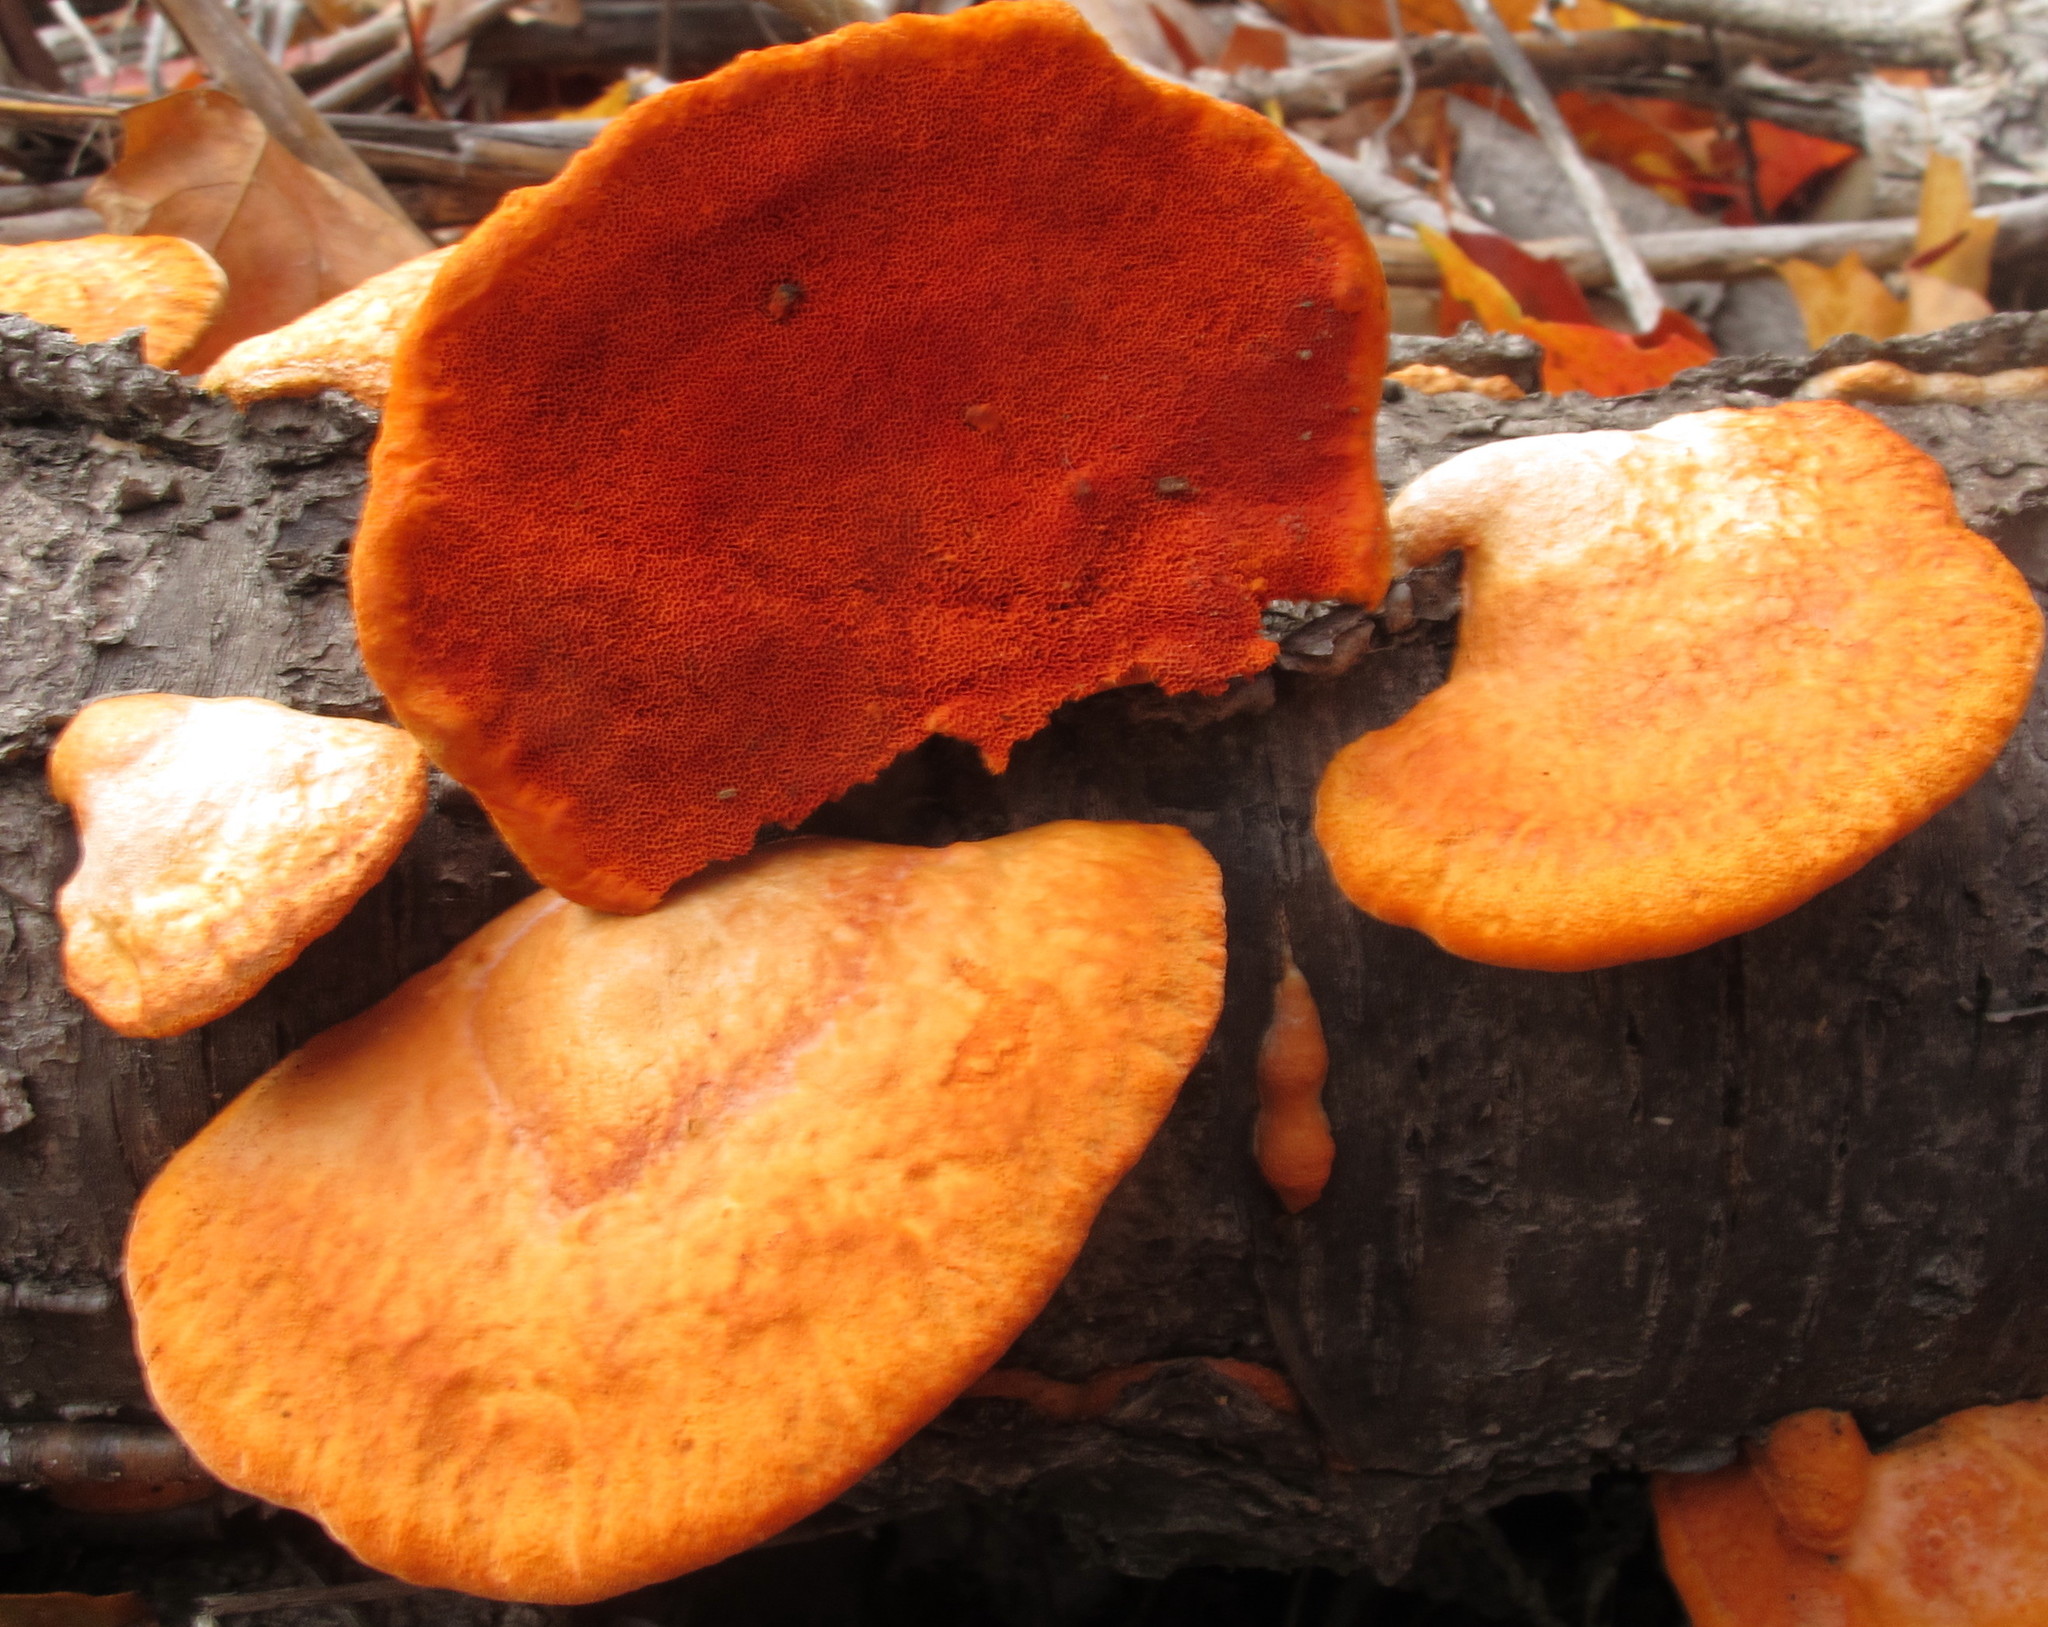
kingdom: Fungi
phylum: Basidiomycota
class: Agaricomycetes
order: Polyporales
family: Polyporaceae
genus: Trametes
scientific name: Trametes cinnabarina
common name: Northern cinnabar polypore
